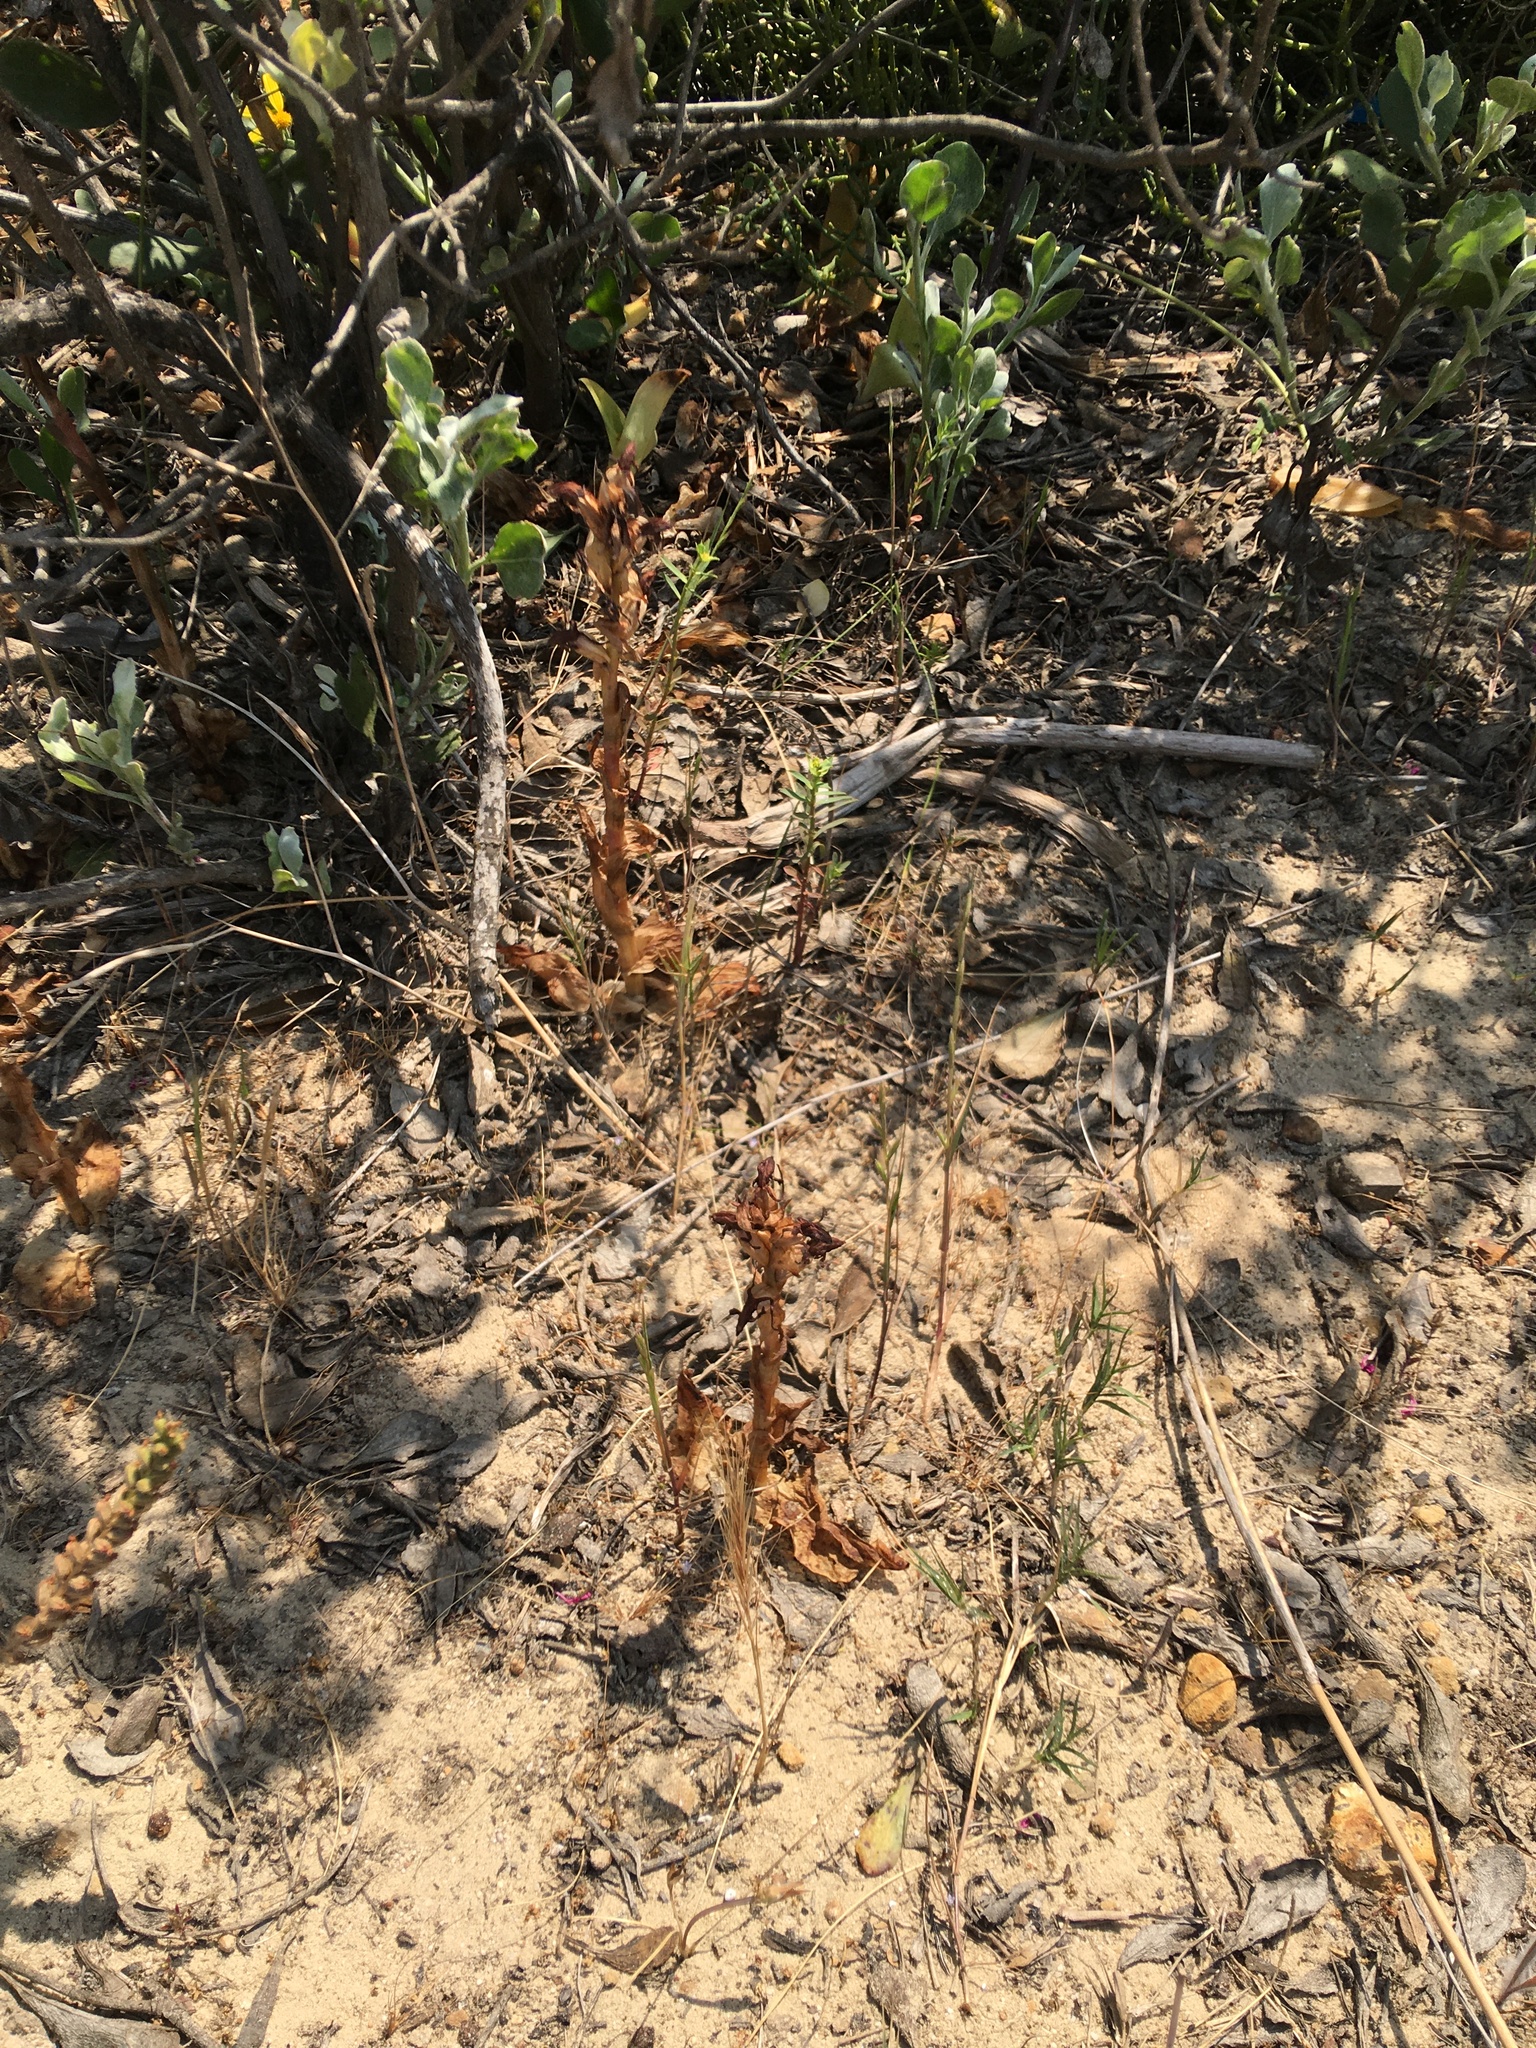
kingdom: Plantae
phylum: Tracheophyta
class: Liliopsida
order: Asparagales
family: Orchidaceae
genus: Satyrium
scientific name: Satyrium odorum
